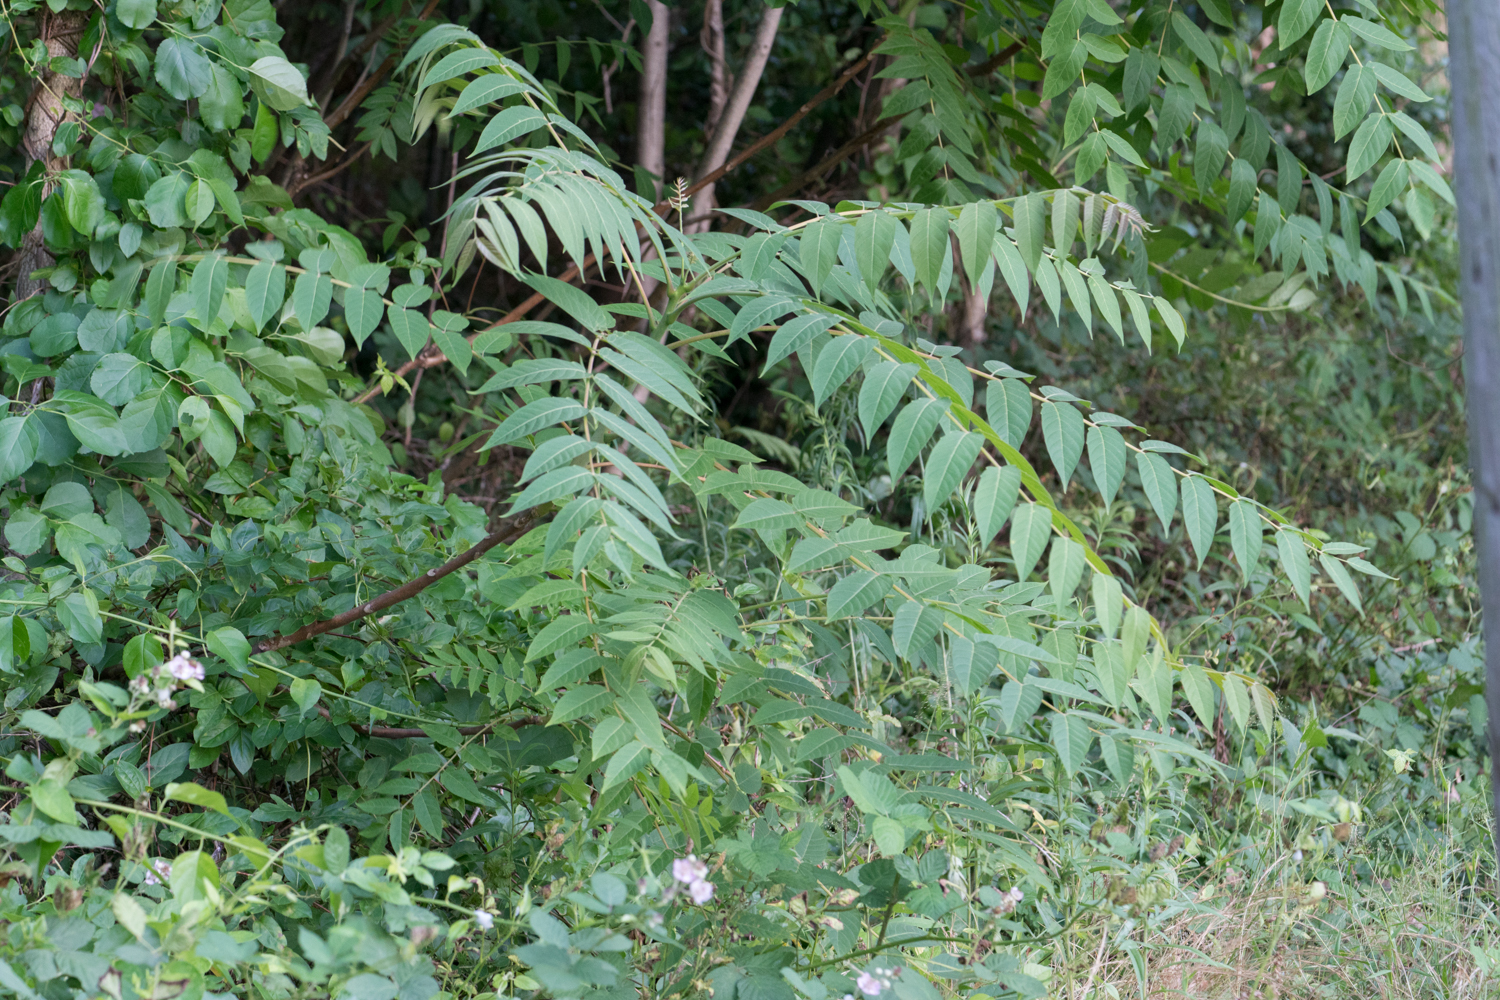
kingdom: Plantae
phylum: Tracheophyta
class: Magnoliopsida
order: Sapindales
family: Simaroubaceae
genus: Ailanthus
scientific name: Ailanthus altissima
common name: Tree-of-heaven
